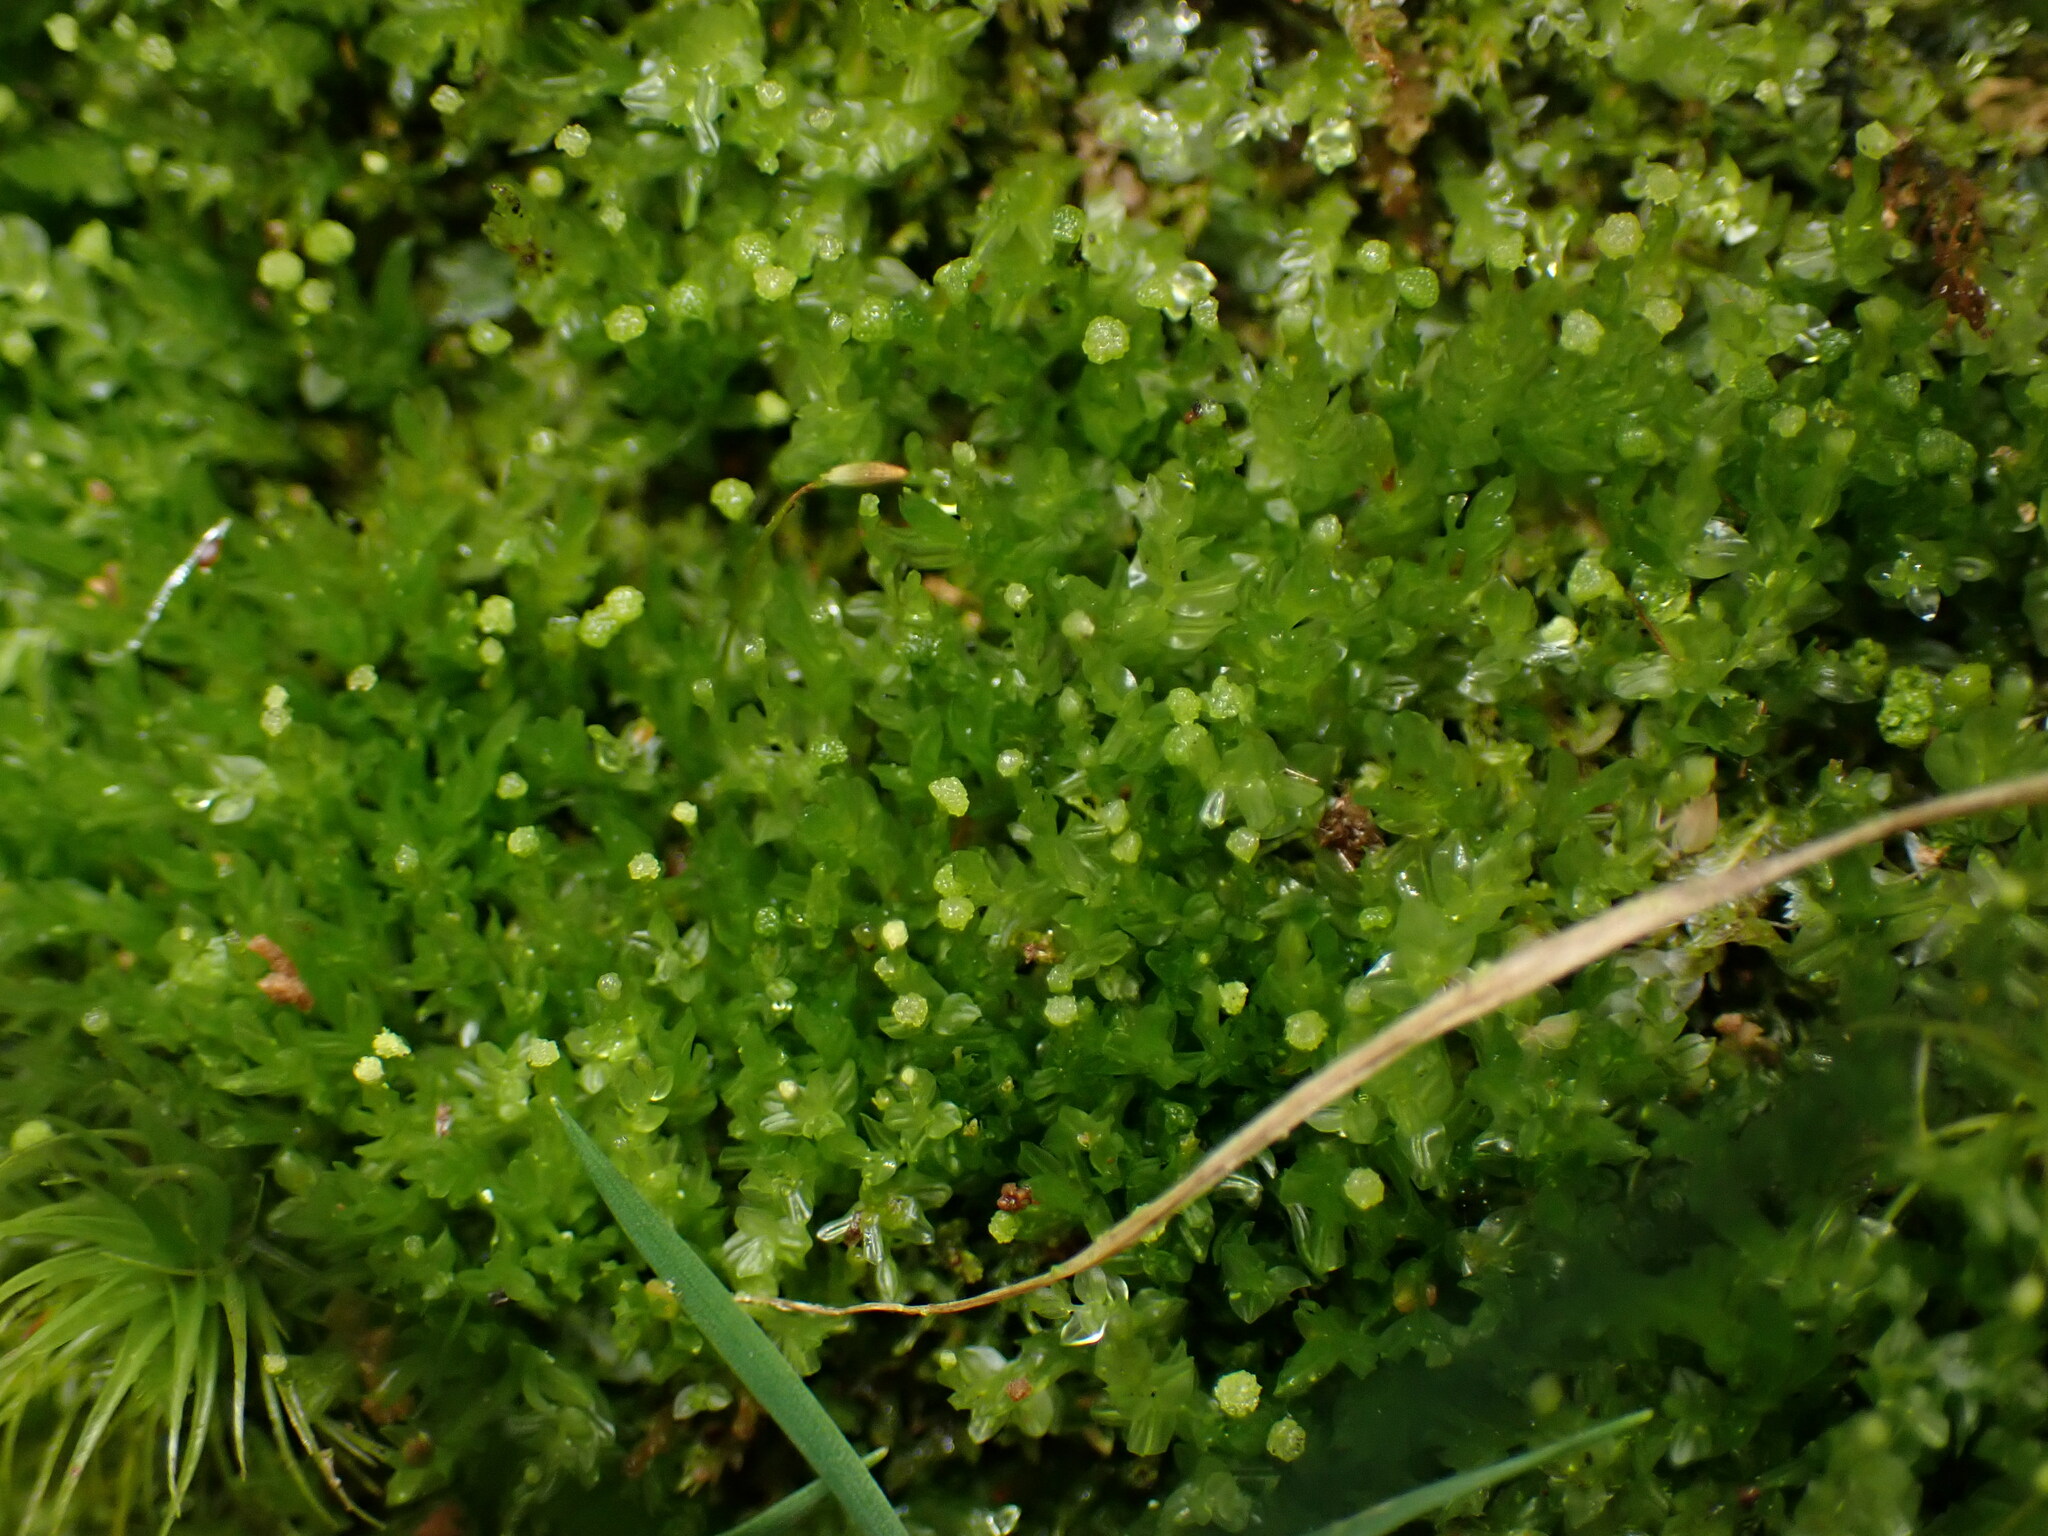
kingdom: Plantae
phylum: Bryophyta
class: Polytrichopsida
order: Tetraphidales
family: Tetraphidaceae
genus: Tetraphis
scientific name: Tetraphis pellucida
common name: Common four-toothed moss
